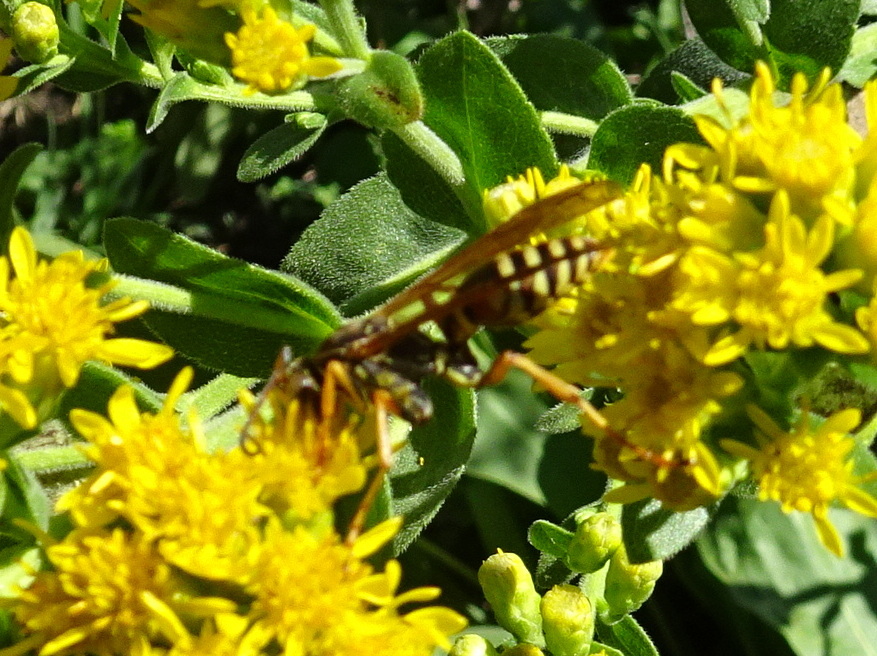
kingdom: Animalia
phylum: Arthropoda
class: Insecta
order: Hymenoptera
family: Eumenidae
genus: Polistes
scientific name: Polistes fuscatus
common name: Dark paper wasp
